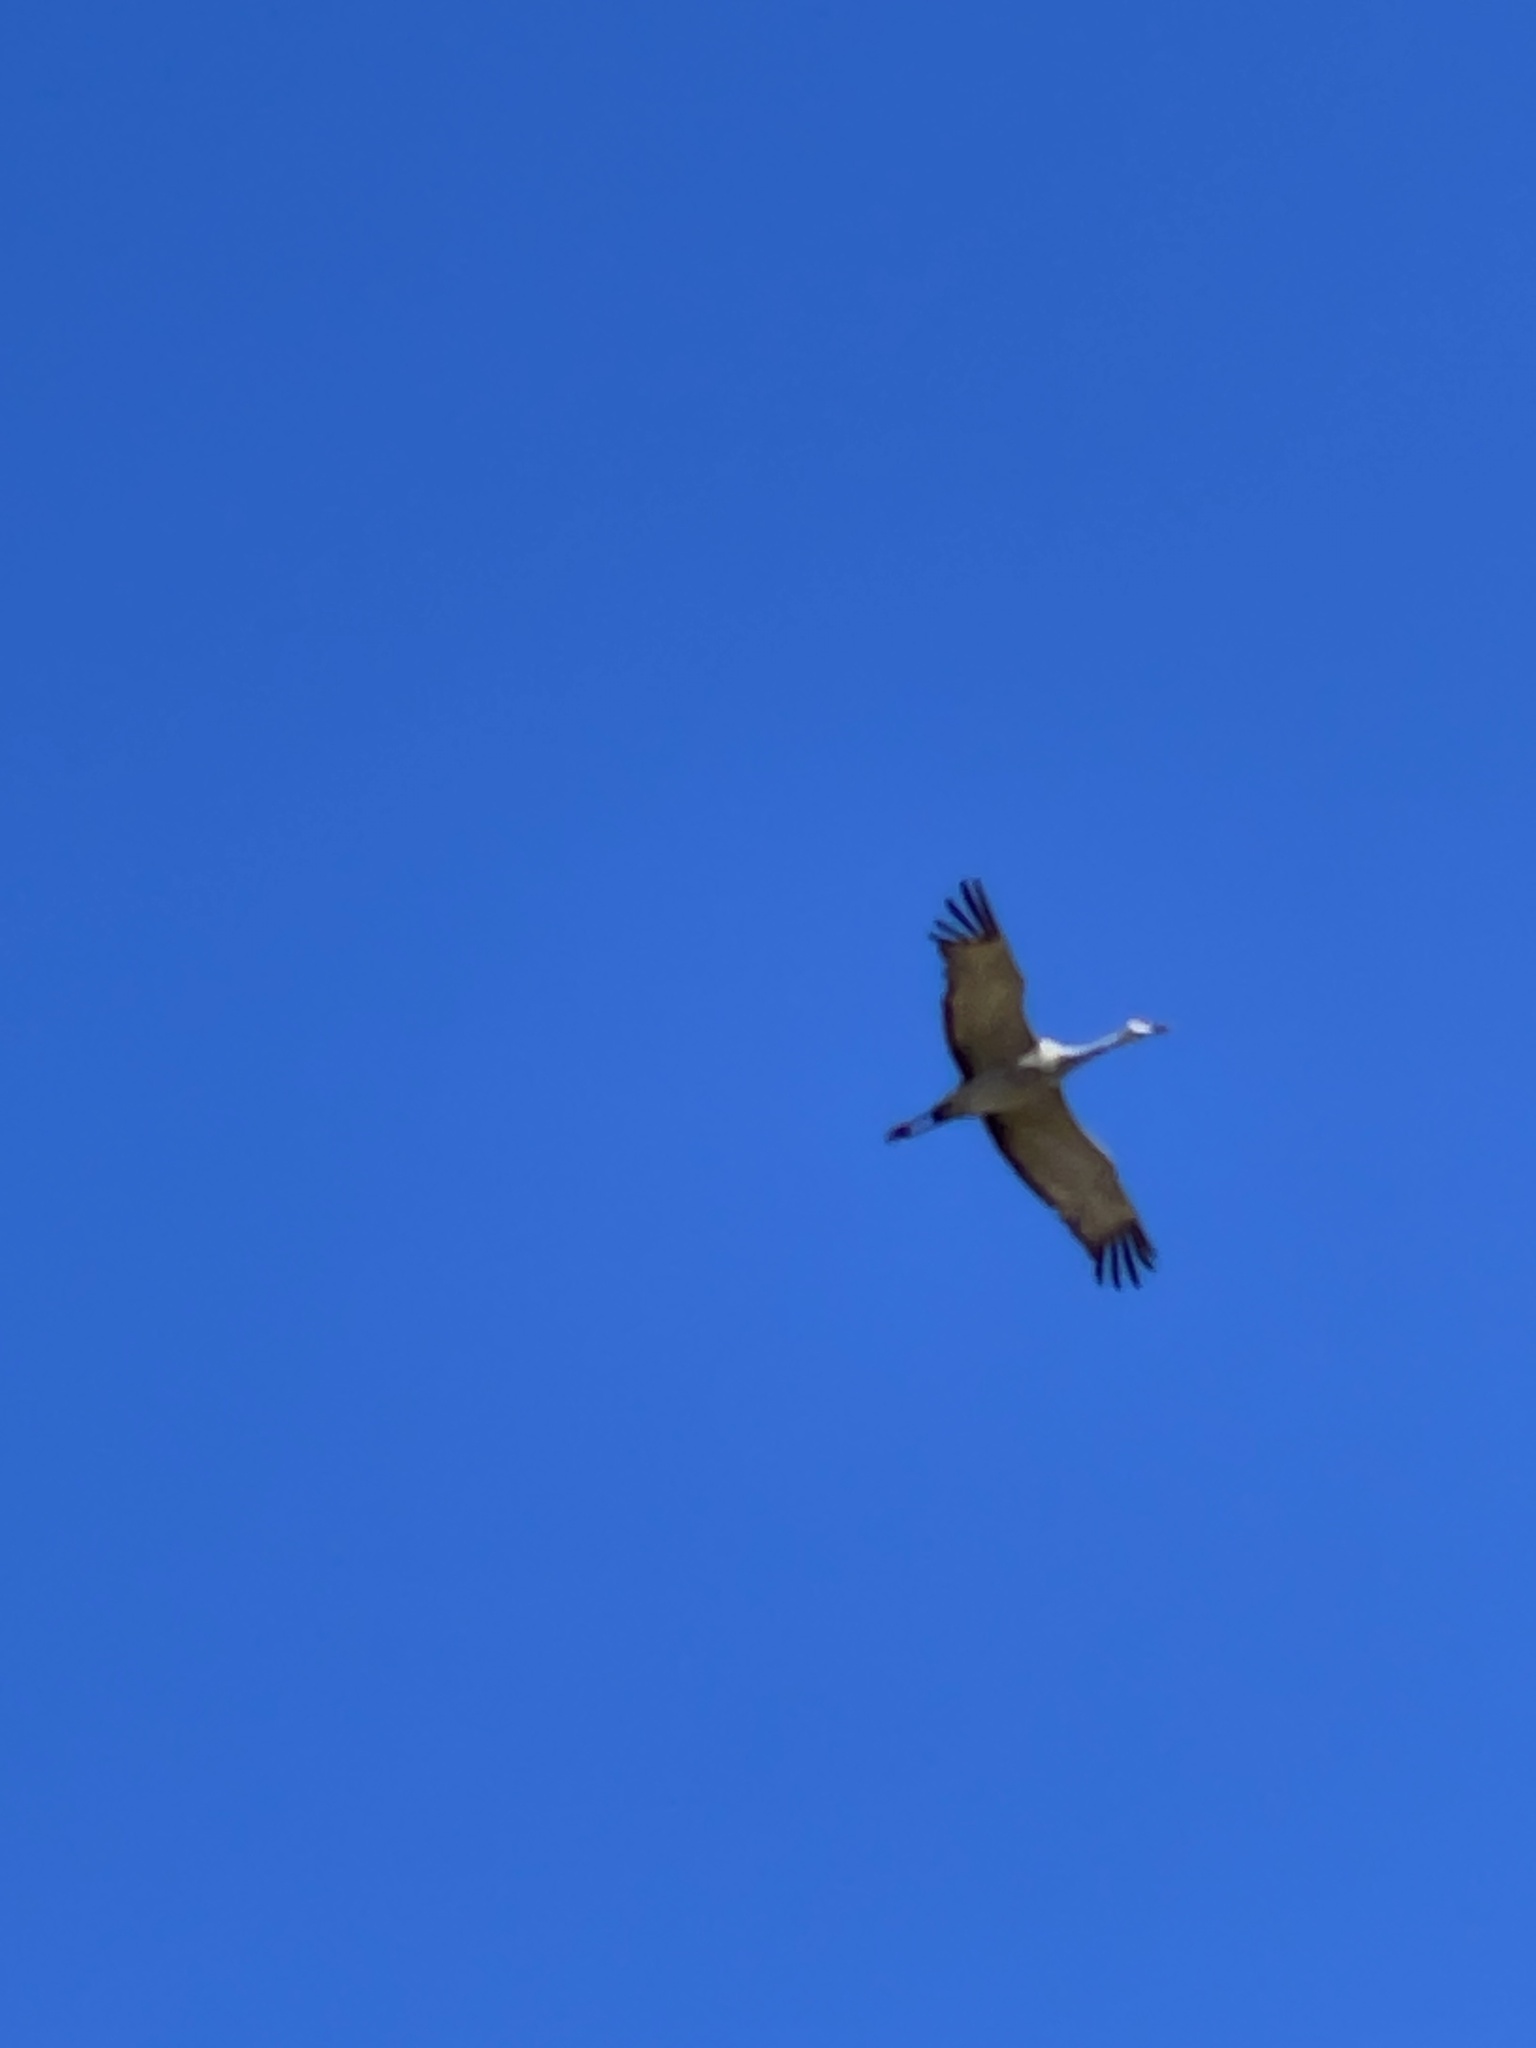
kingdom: Animalia
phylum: Chordata
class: Aves
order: Gruiformes
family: Gruidae
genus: Grus
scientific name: Grus canadensis
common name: Sandhill crane
